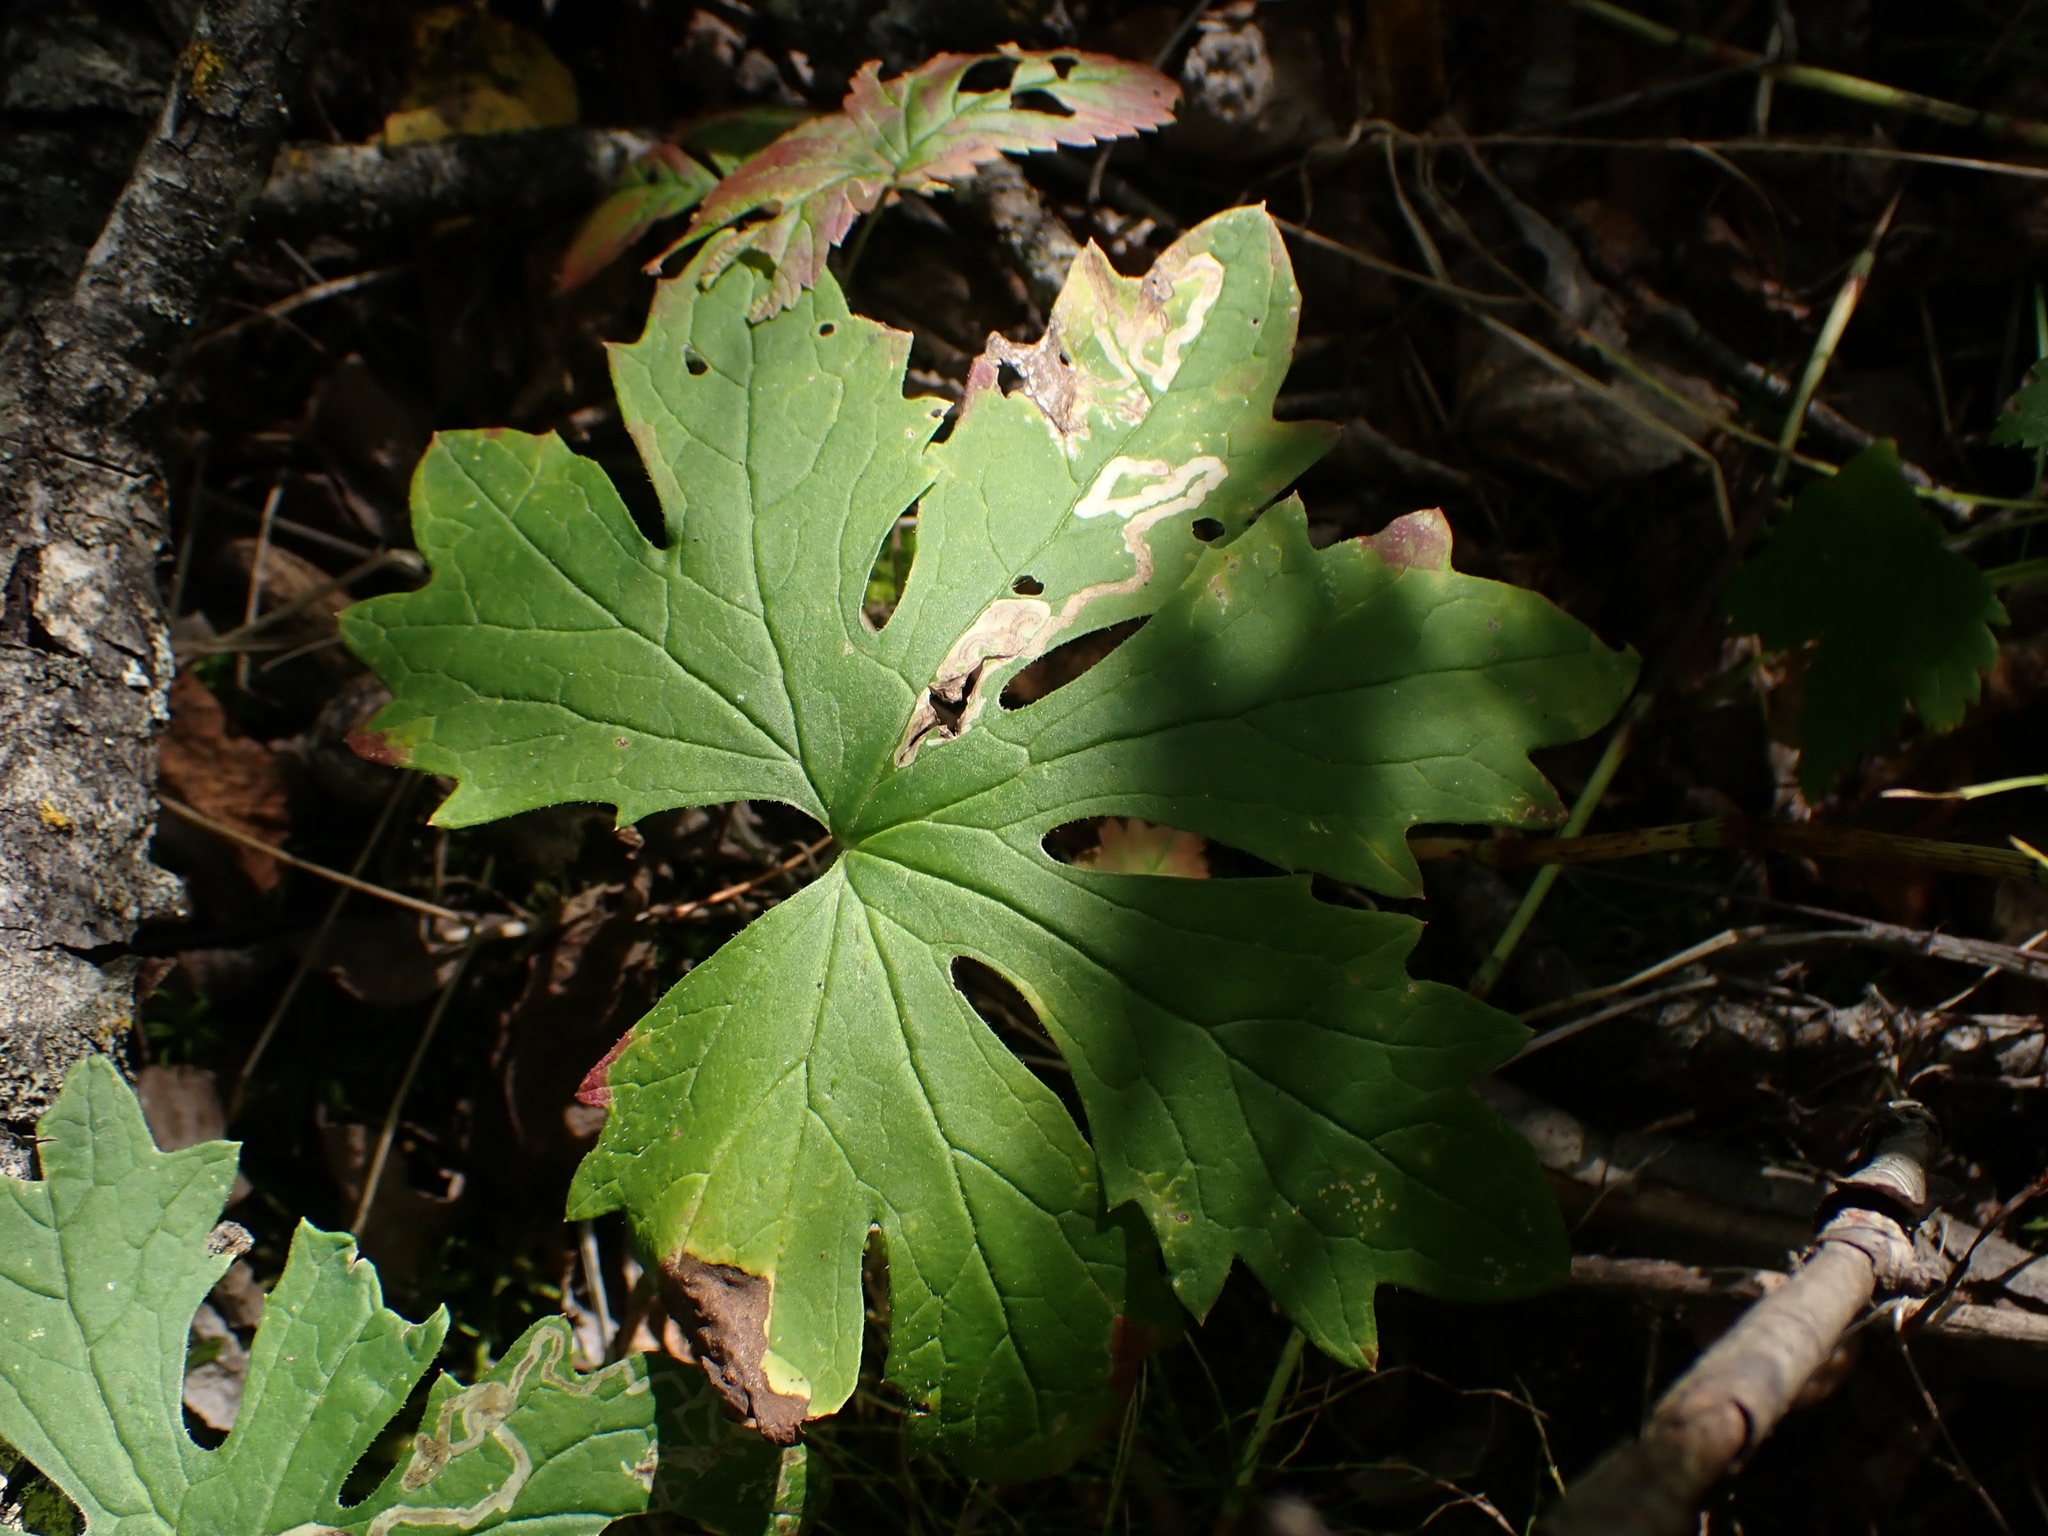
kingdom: Plantae
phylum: Tracheophyta
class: Magnoliopsida
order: Asterales
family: Asteraceae
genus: Petasites
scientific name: Petasites frigidus
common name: Arctic butterbur
